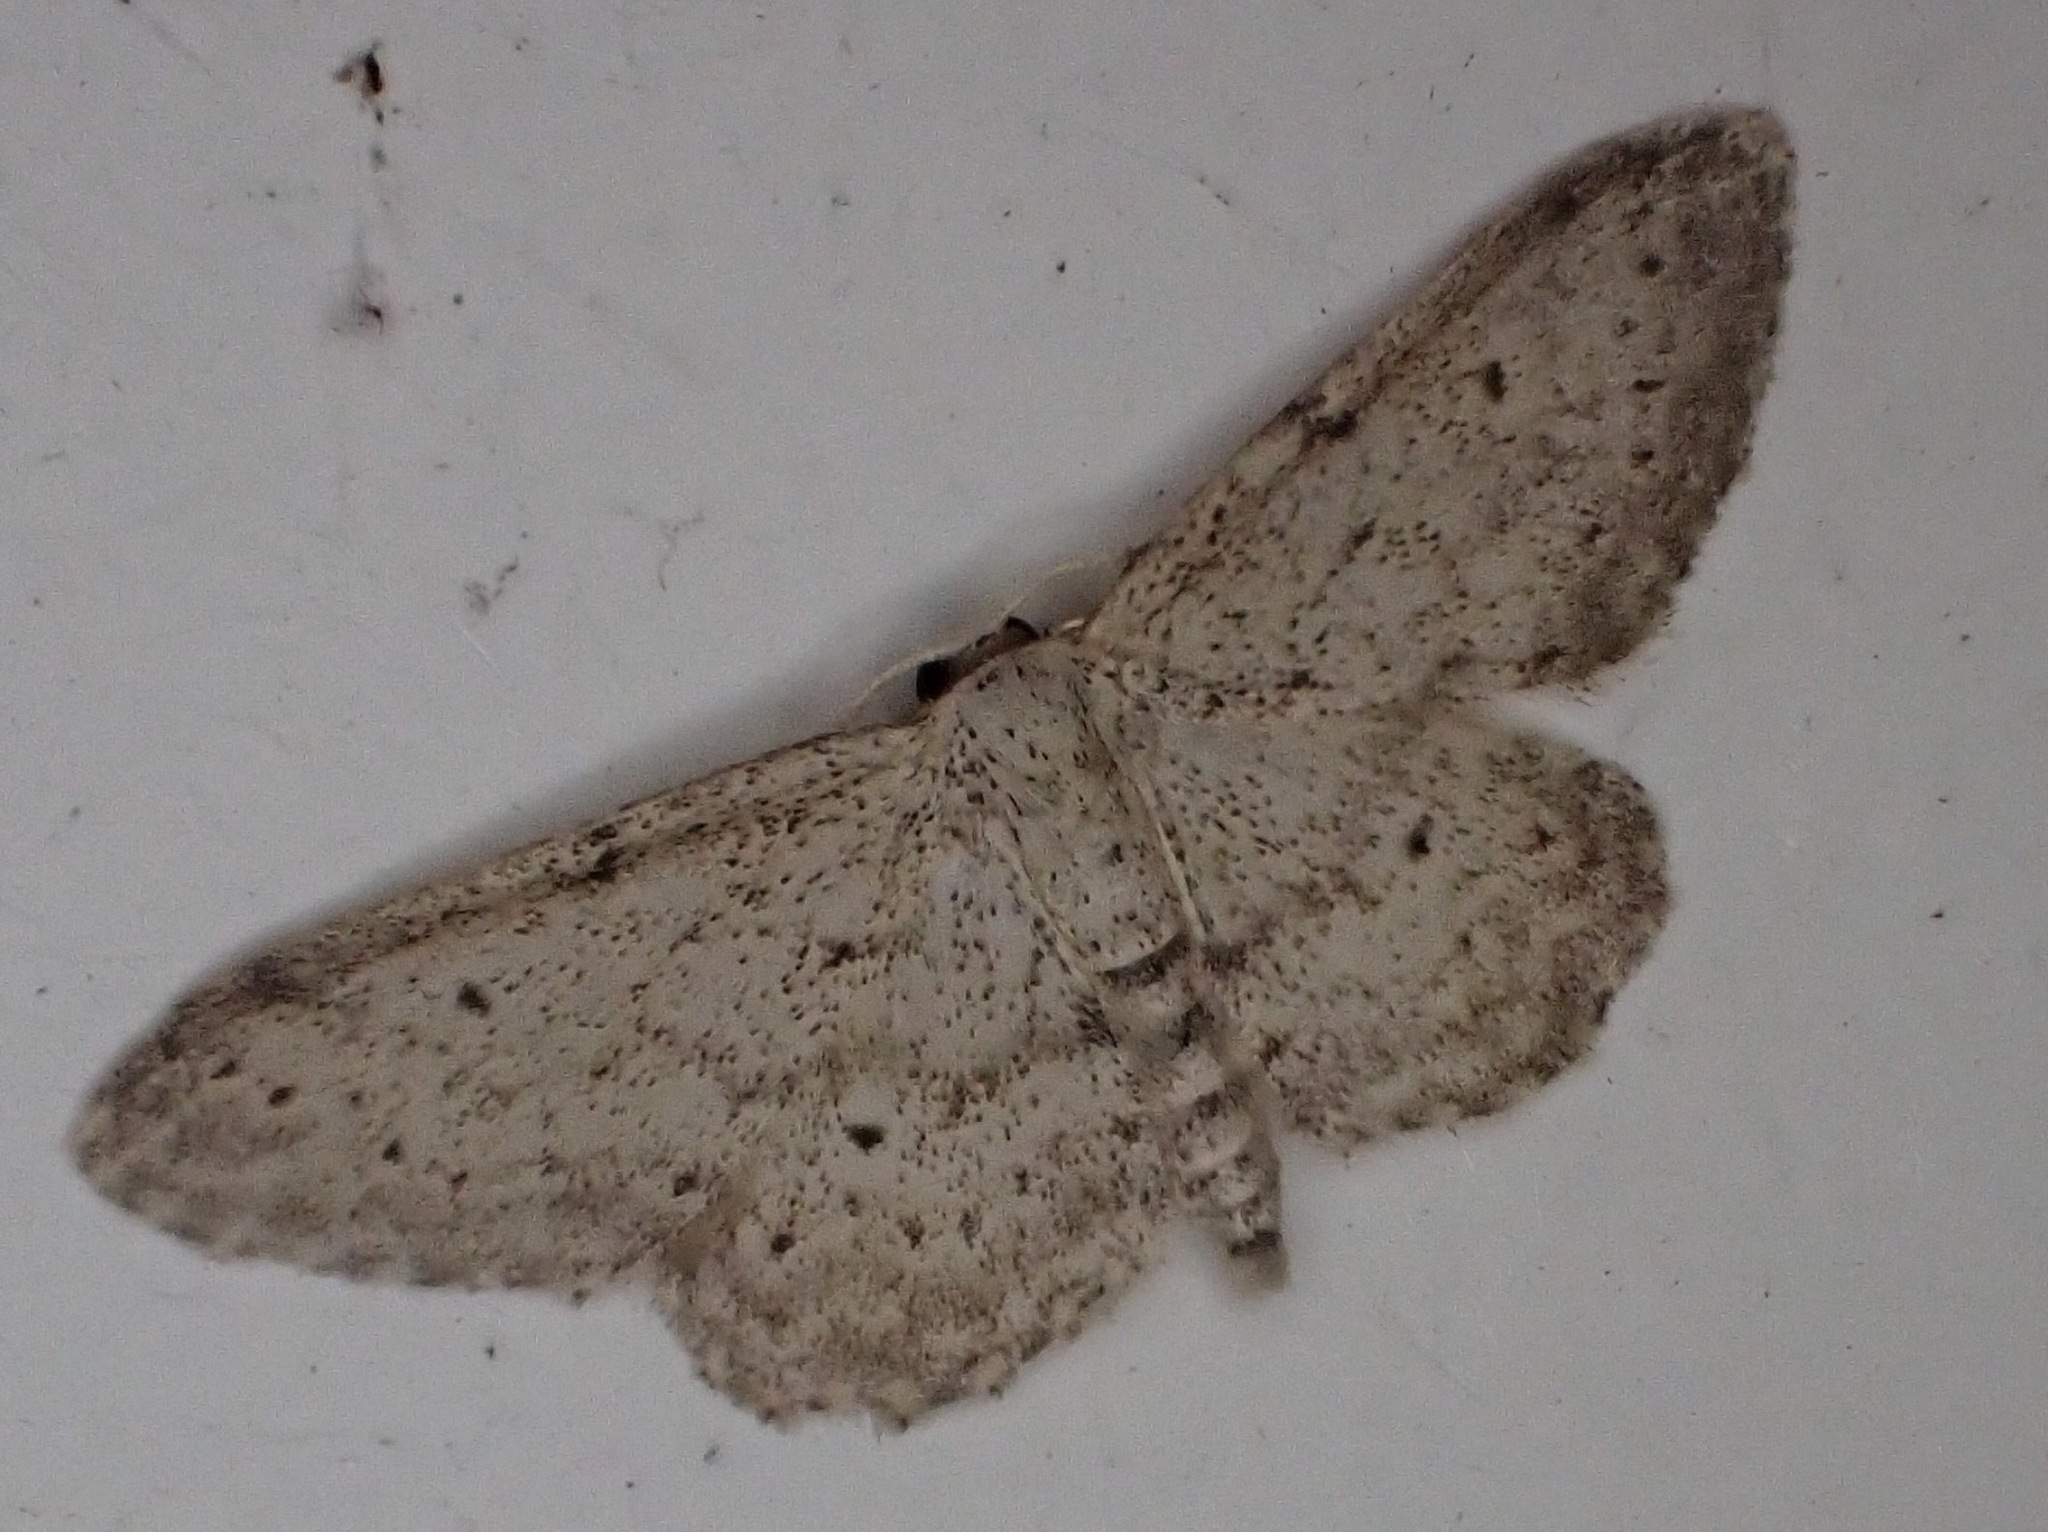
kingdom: Animalia
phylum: Arthropoda
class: Insecta
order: Lepidoptera
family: Geometridae
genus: Idaea
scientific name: Idaea seriata
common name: Small dusty wave
